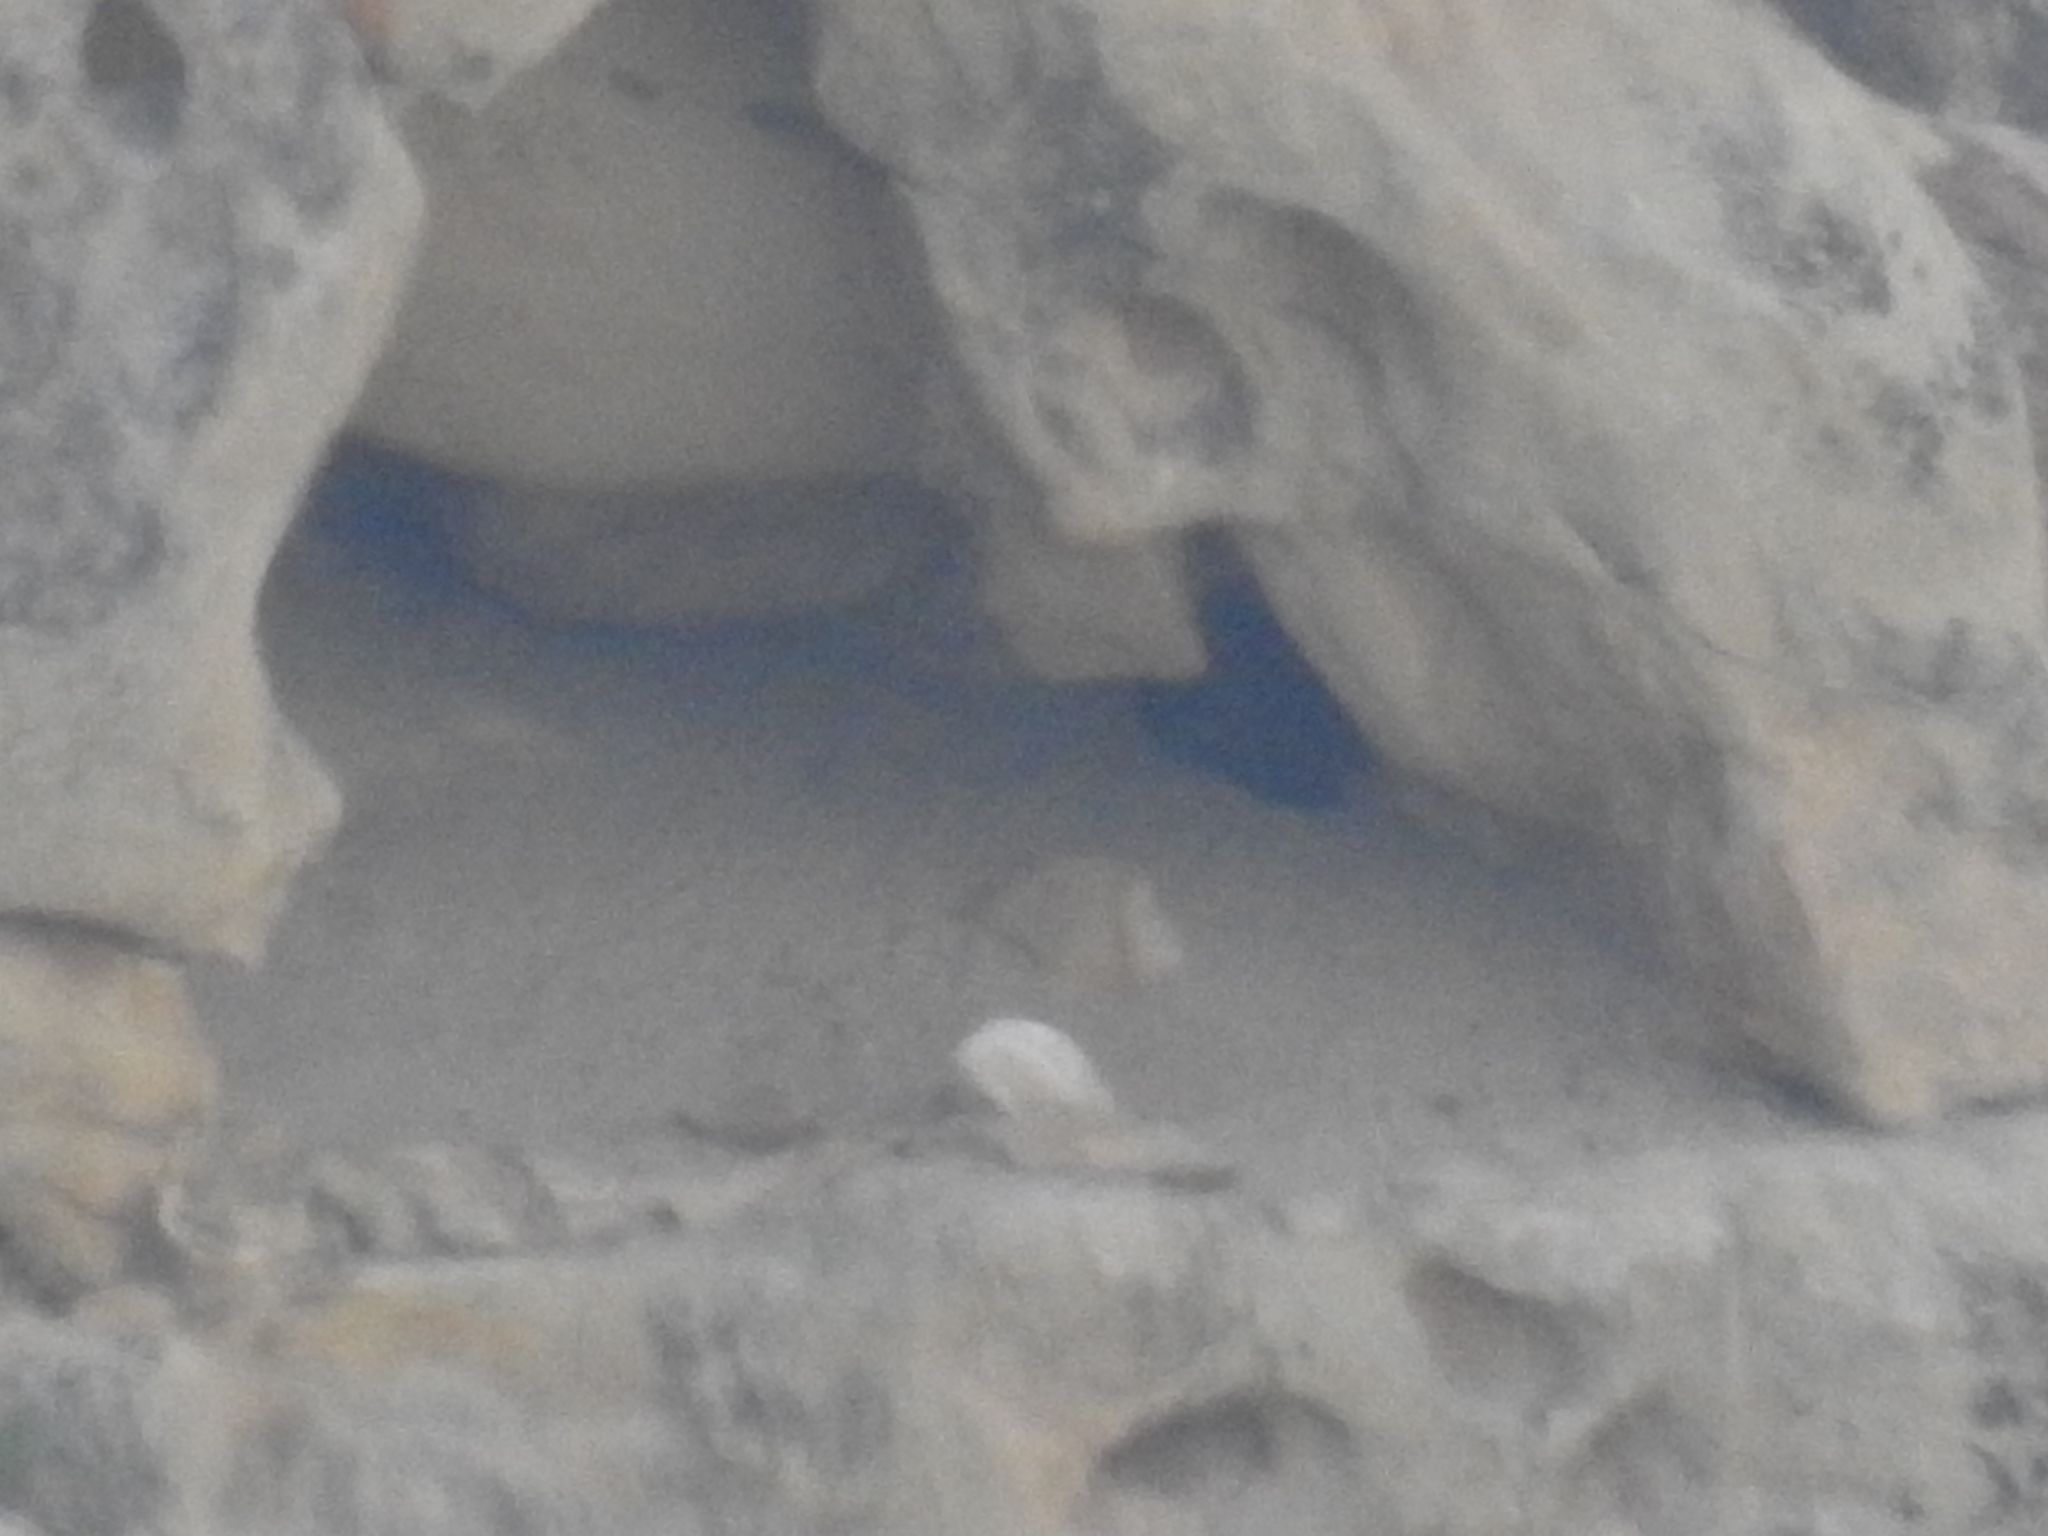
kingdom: Animalia
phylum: Chordata
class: Aves
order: Accipitriformes
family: Cathartidae
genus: Gymnogyps
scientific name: Gymnogyps californianus
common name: California condor
